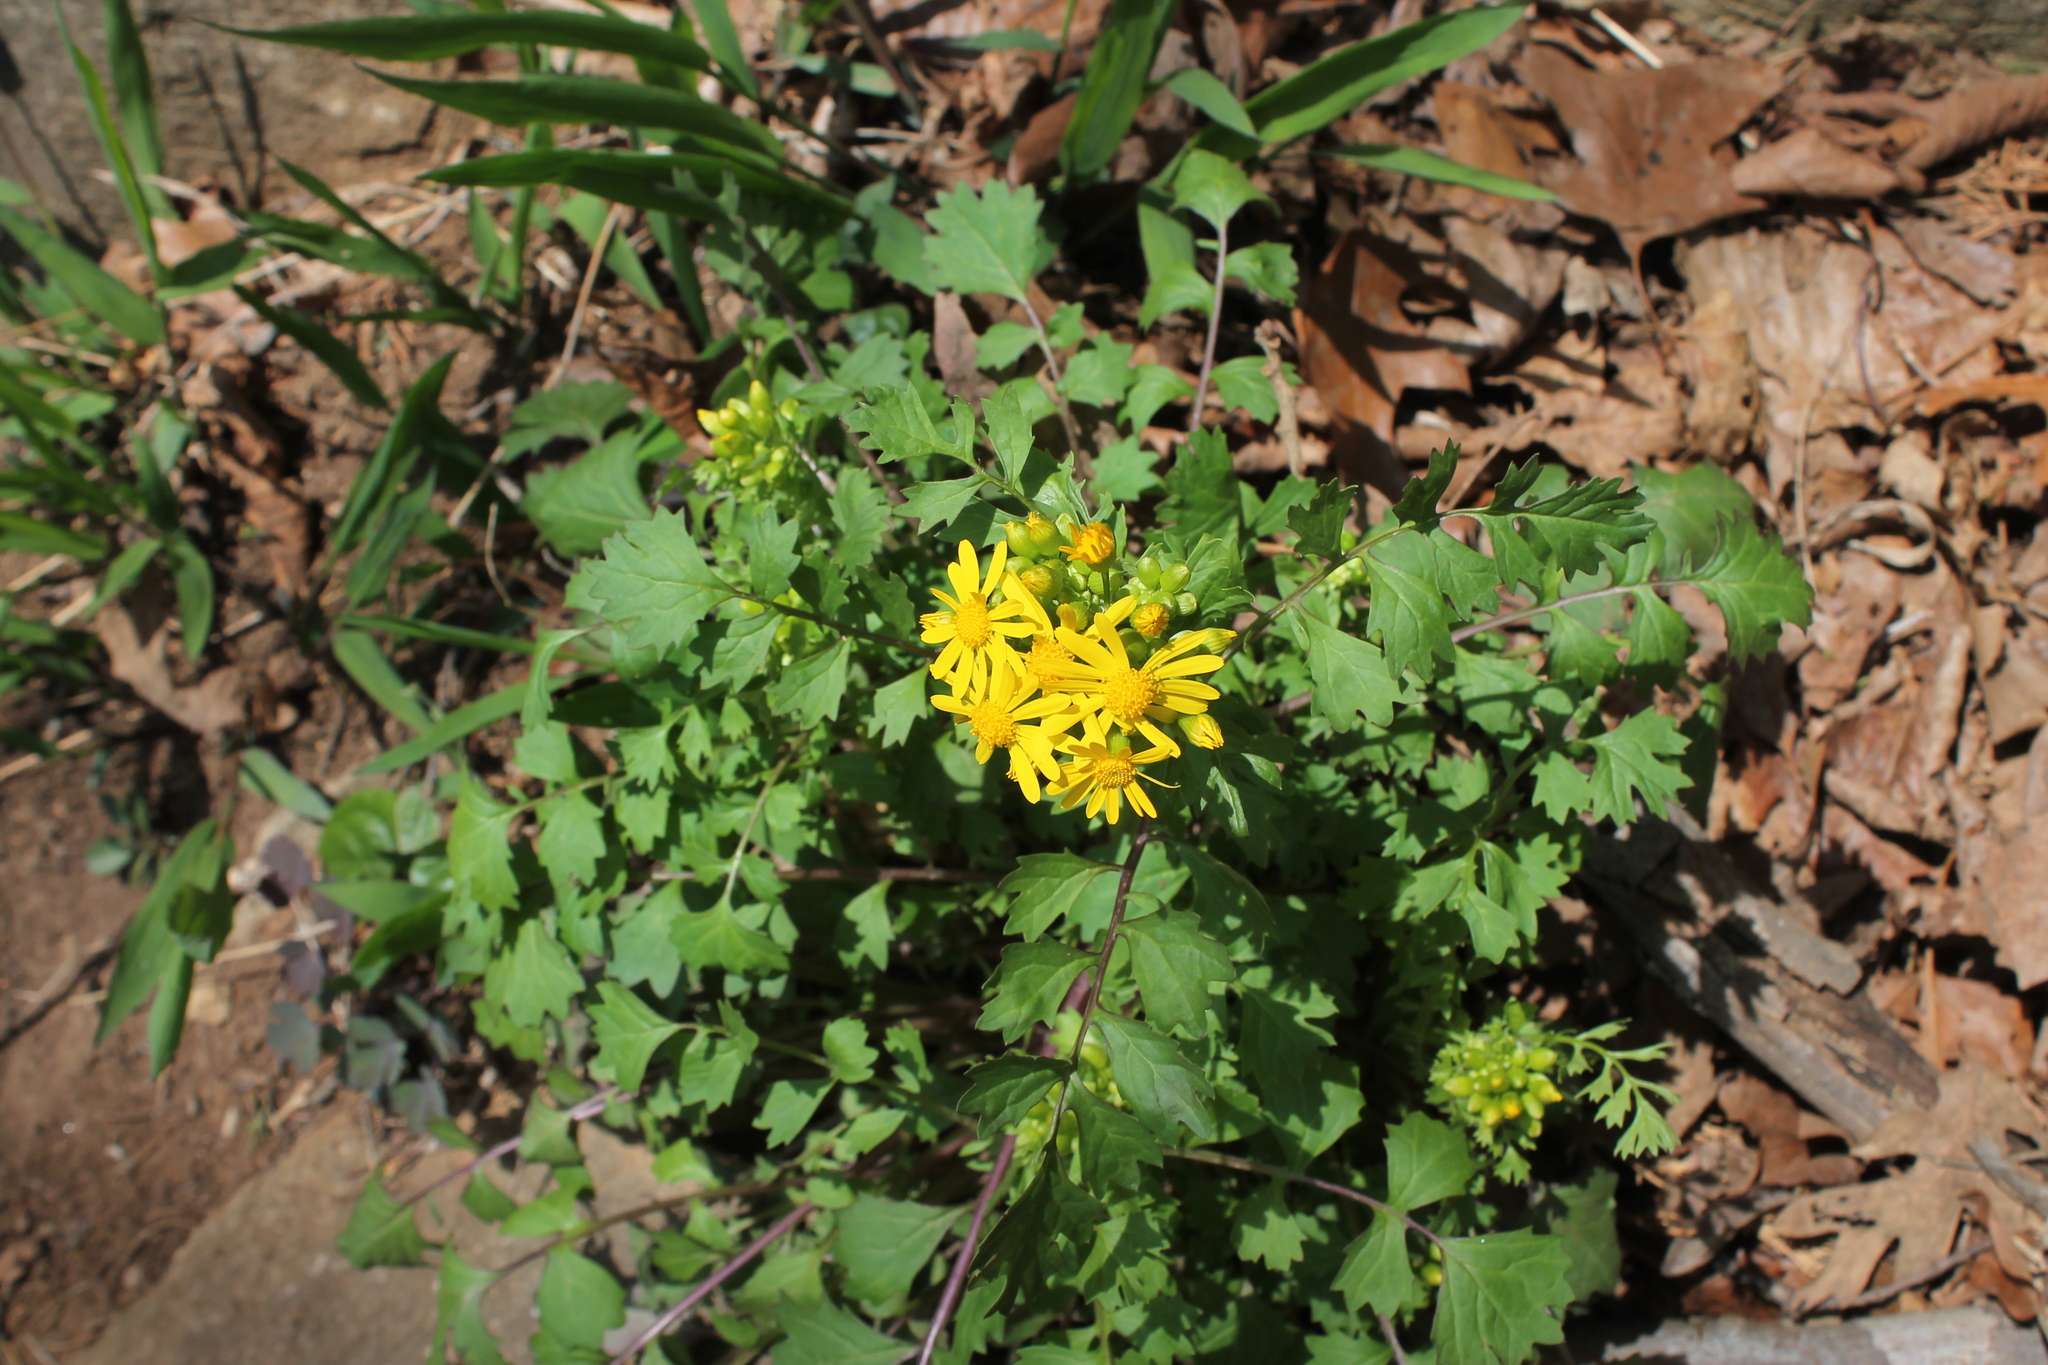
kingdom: Plantae
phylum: Tracheophyta
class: Magnoliopsida
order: Asterales
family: Asteraceae
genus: Packera
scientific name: Packera glabella
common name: Butterweed
